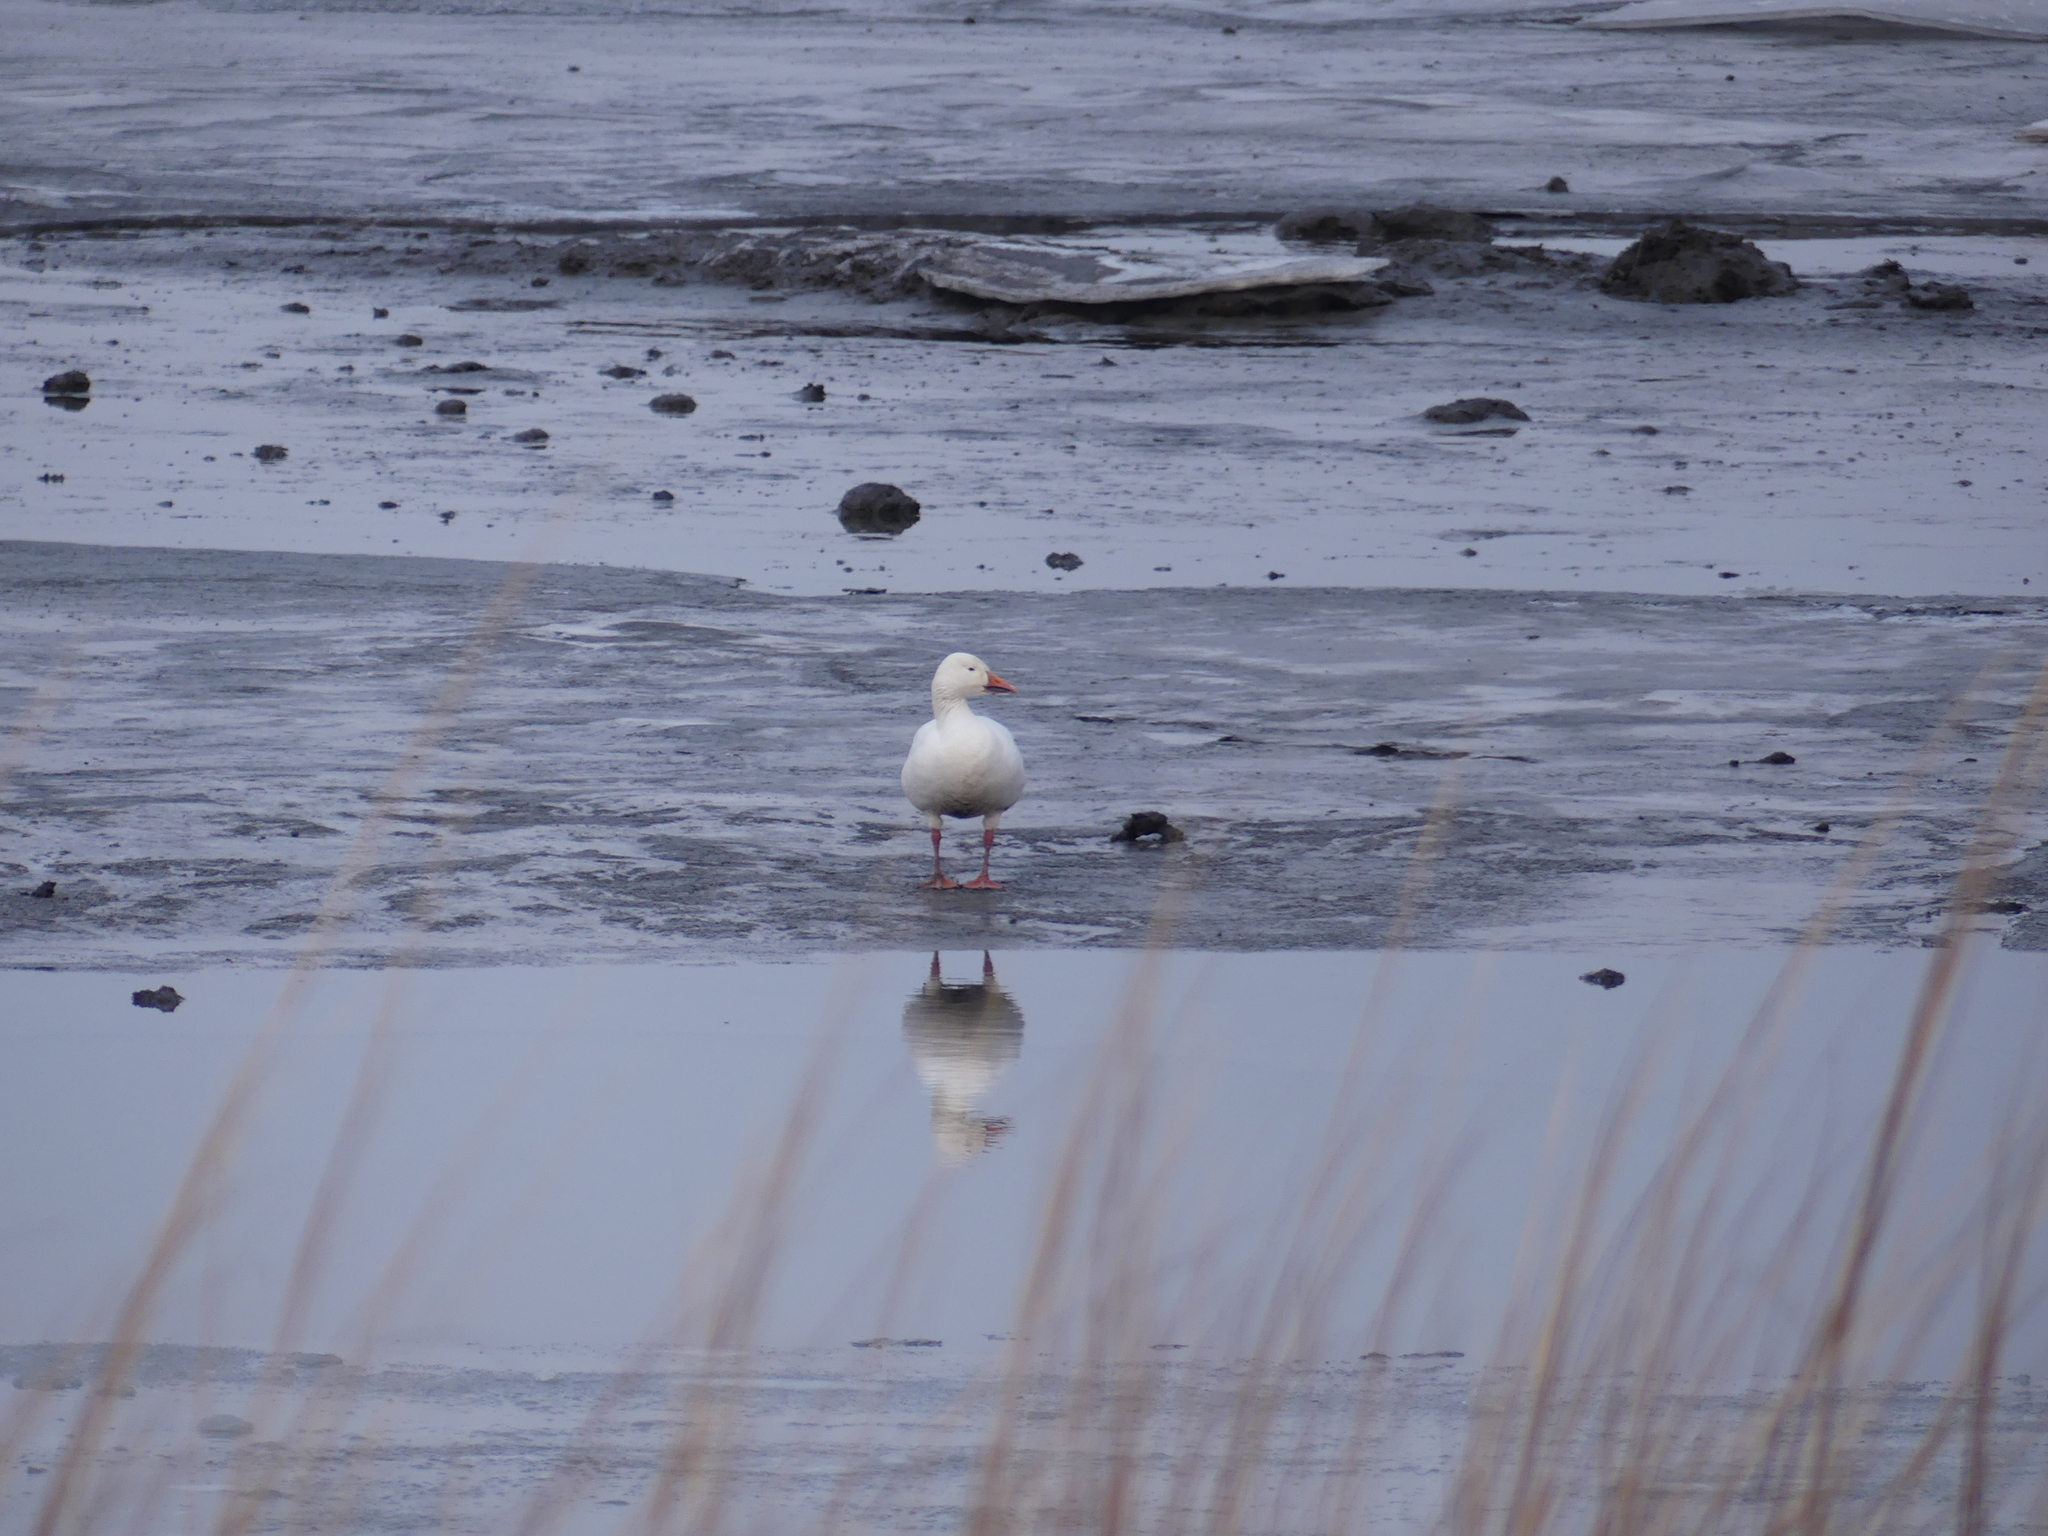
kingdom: Animalia
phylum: Chordata
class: Aves
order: Anseriformes
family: Anatidae
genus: Anser
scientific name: Anser caerulescens
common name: Snow goose
